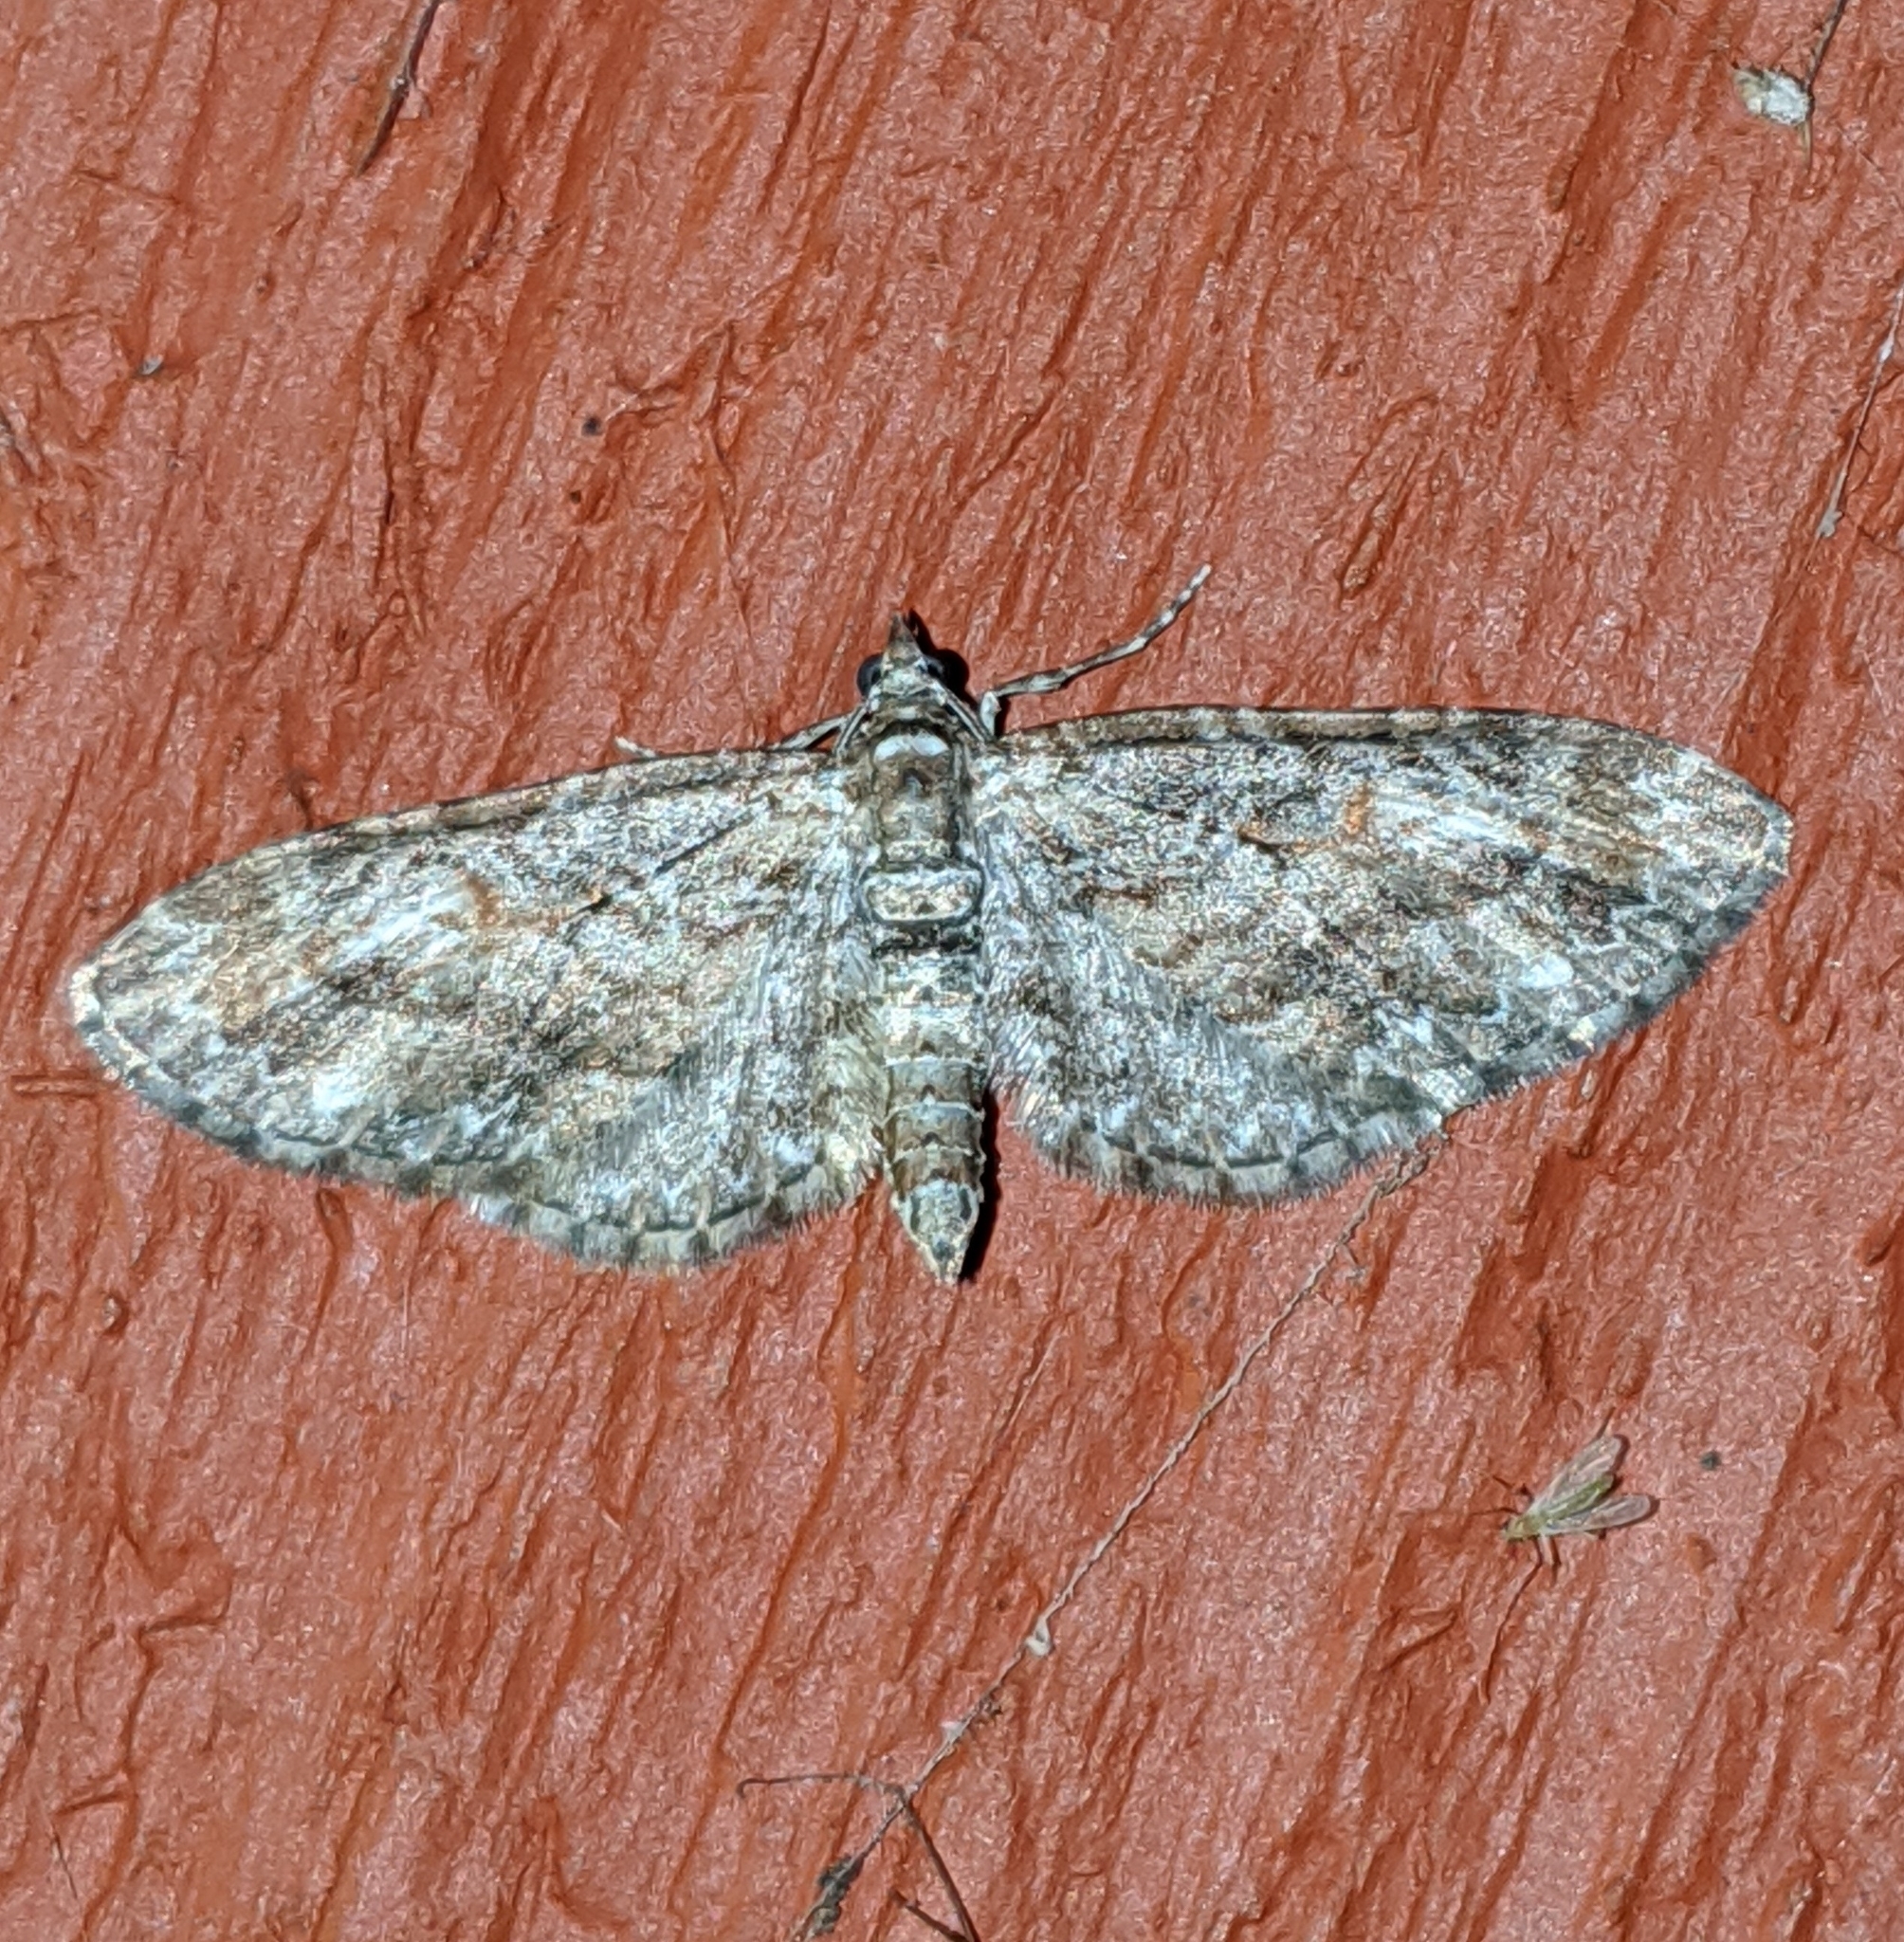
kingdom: Animalia
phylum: Arthropoda
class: Insecta
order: Lepidoptera
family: Geometridae
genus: Eupithecia
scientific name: Eupithecia graefii
